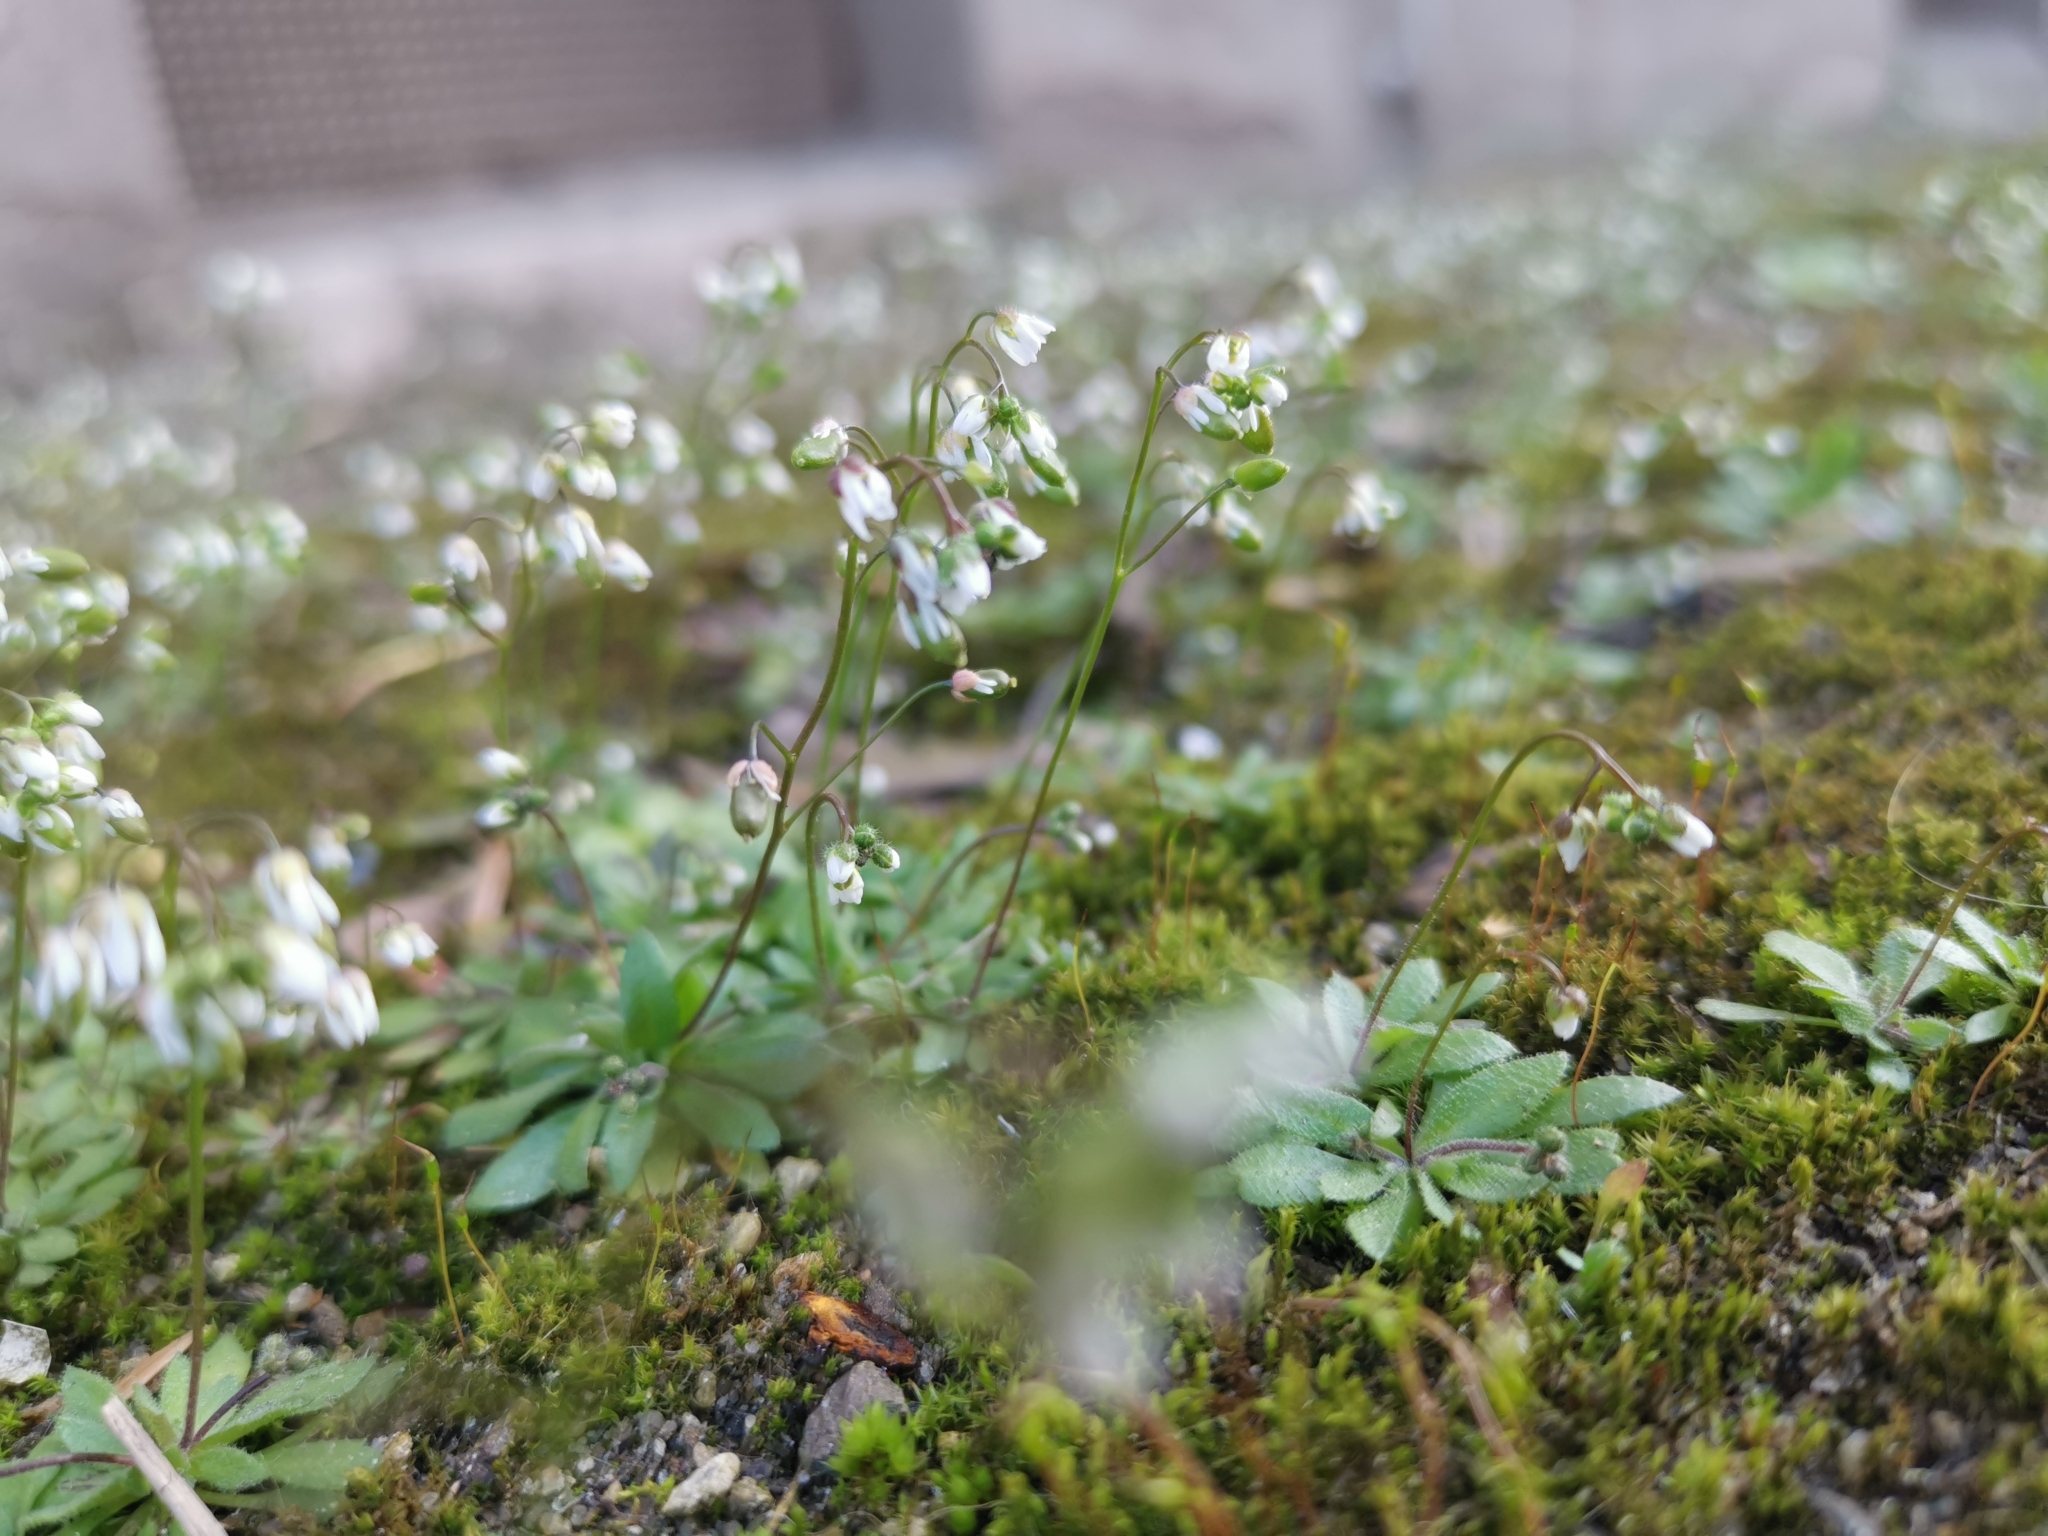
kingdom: Plantae
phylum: Tracheophyta
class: Magnoliopsida
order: Brassicales
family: Brassicaceae
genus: Draba
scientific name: Draba verna
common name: Spring draba
